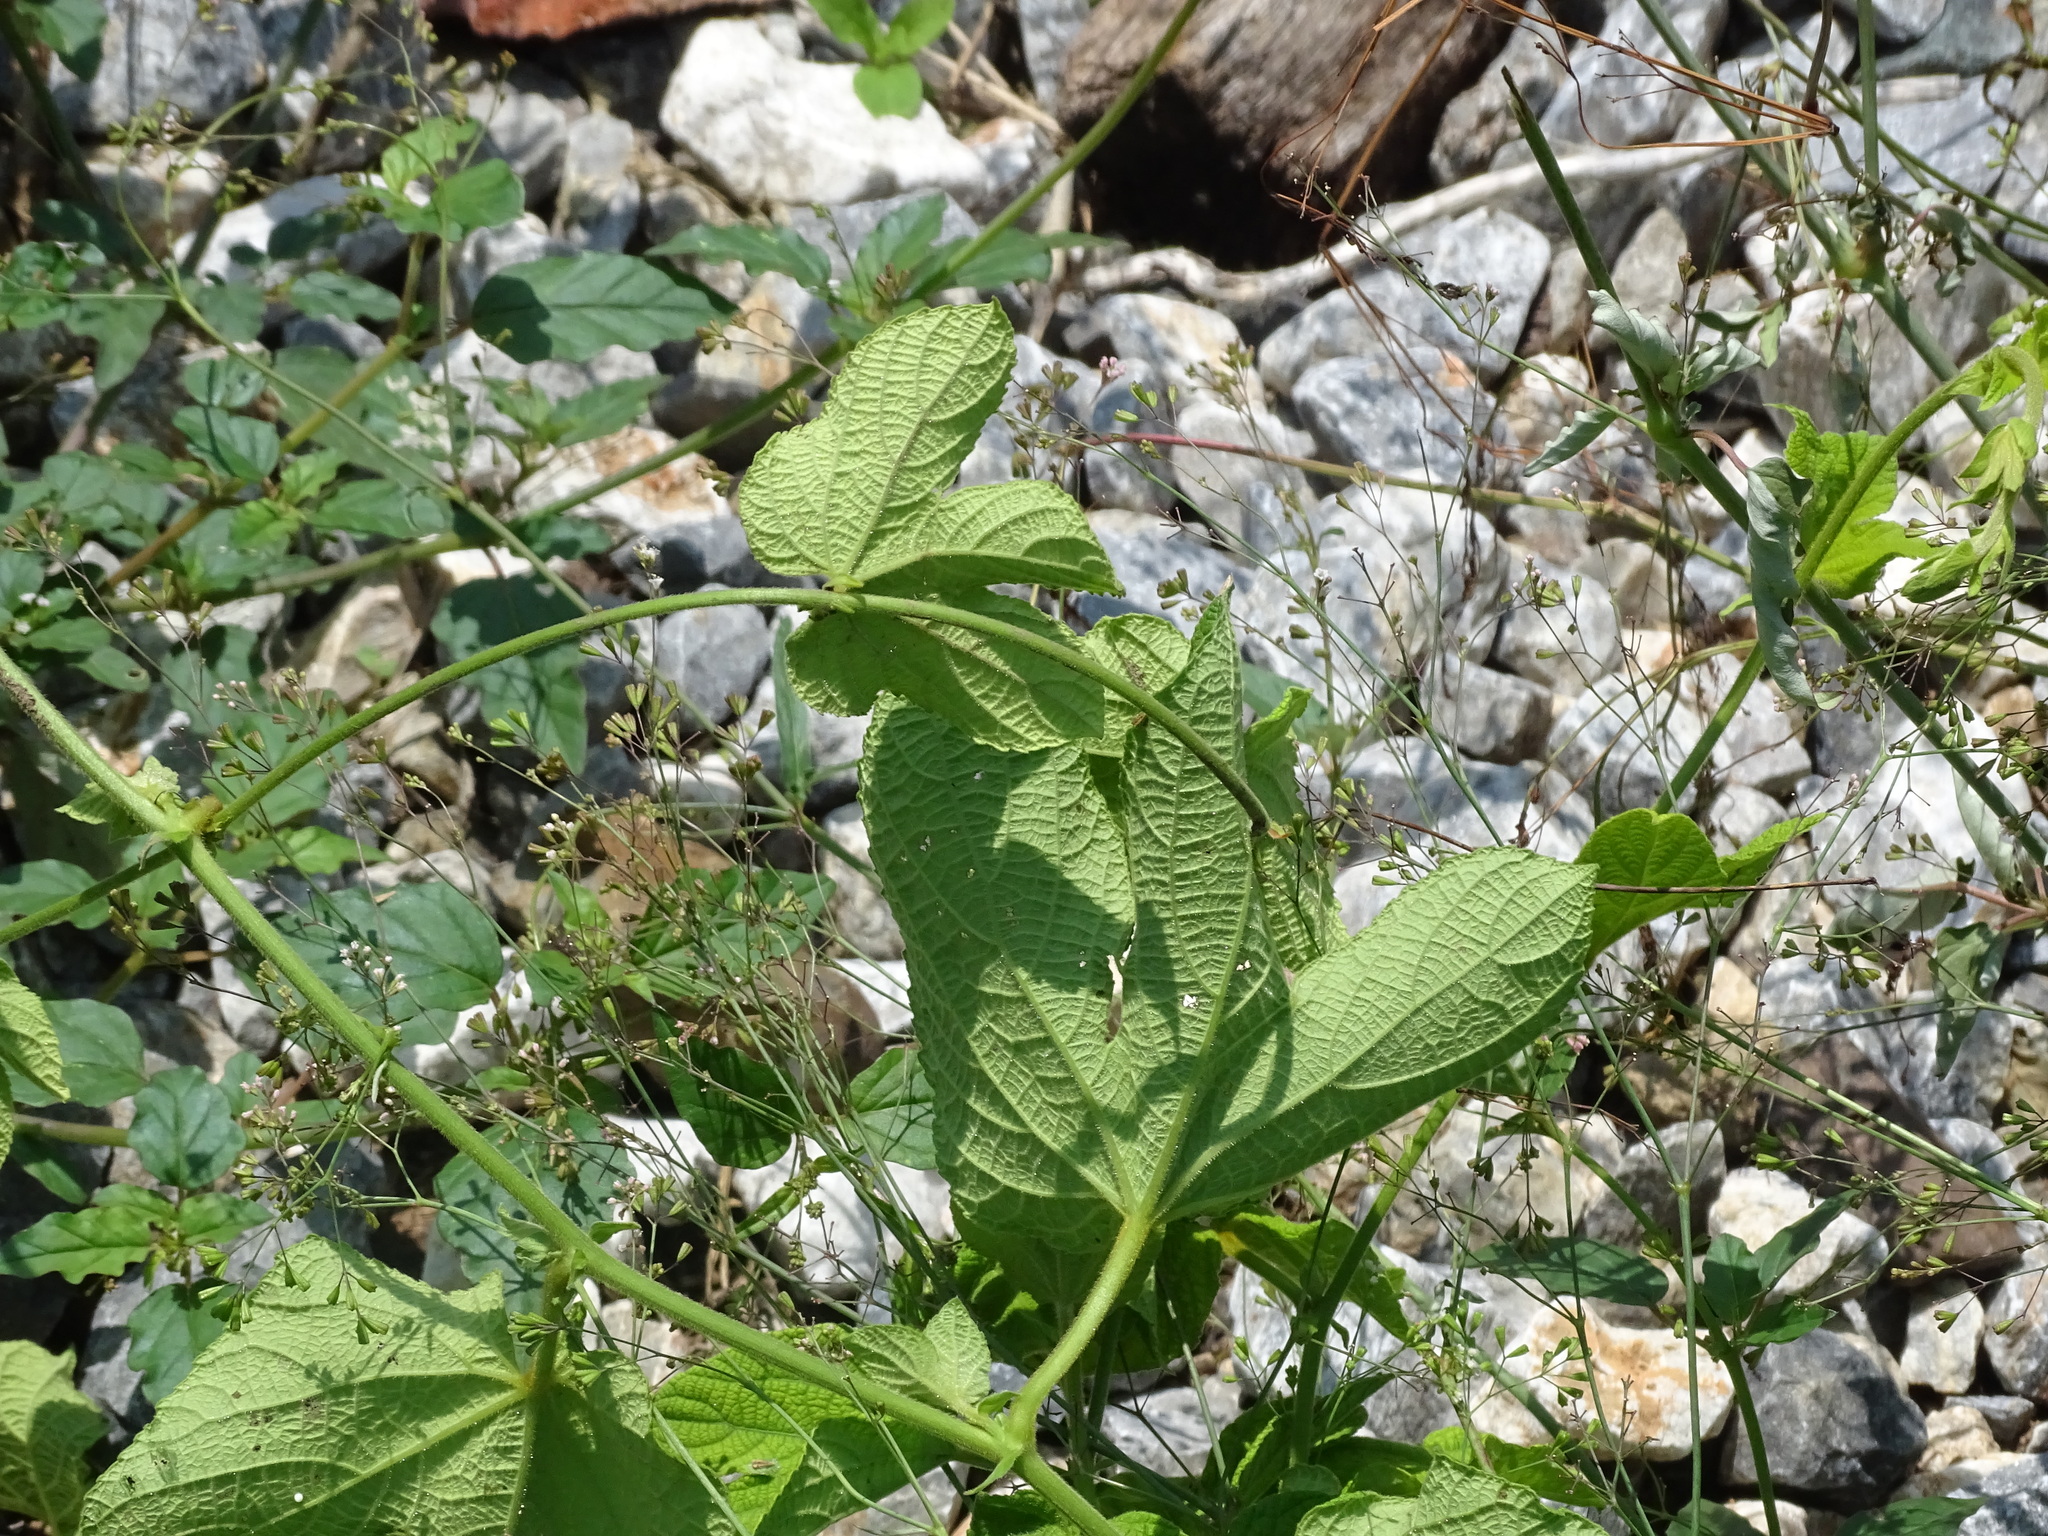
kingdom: Plantae
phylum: Tracheophyta
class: Magnoliopsida
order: Malpighiales
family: Euphorbiaceae
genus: Dalechampia
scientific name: Dalechampia scandens
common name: Spurgecreeper
